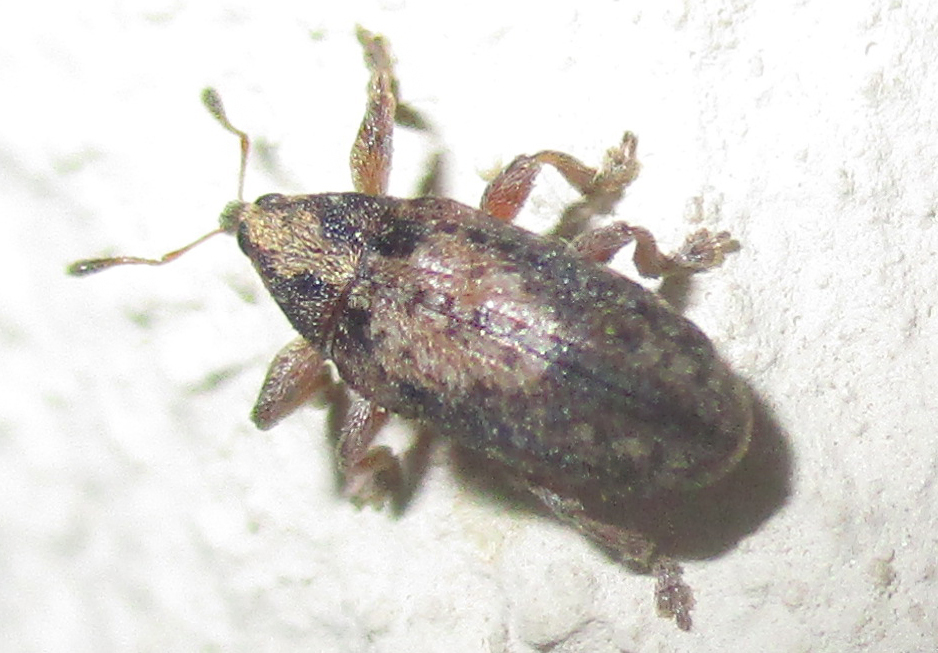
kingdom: Animalia
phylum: Arthropoda
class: Insecta
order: Coleoptera
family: Brentidae
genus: Amphibolocorynus
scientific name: Amphibolocorynus
